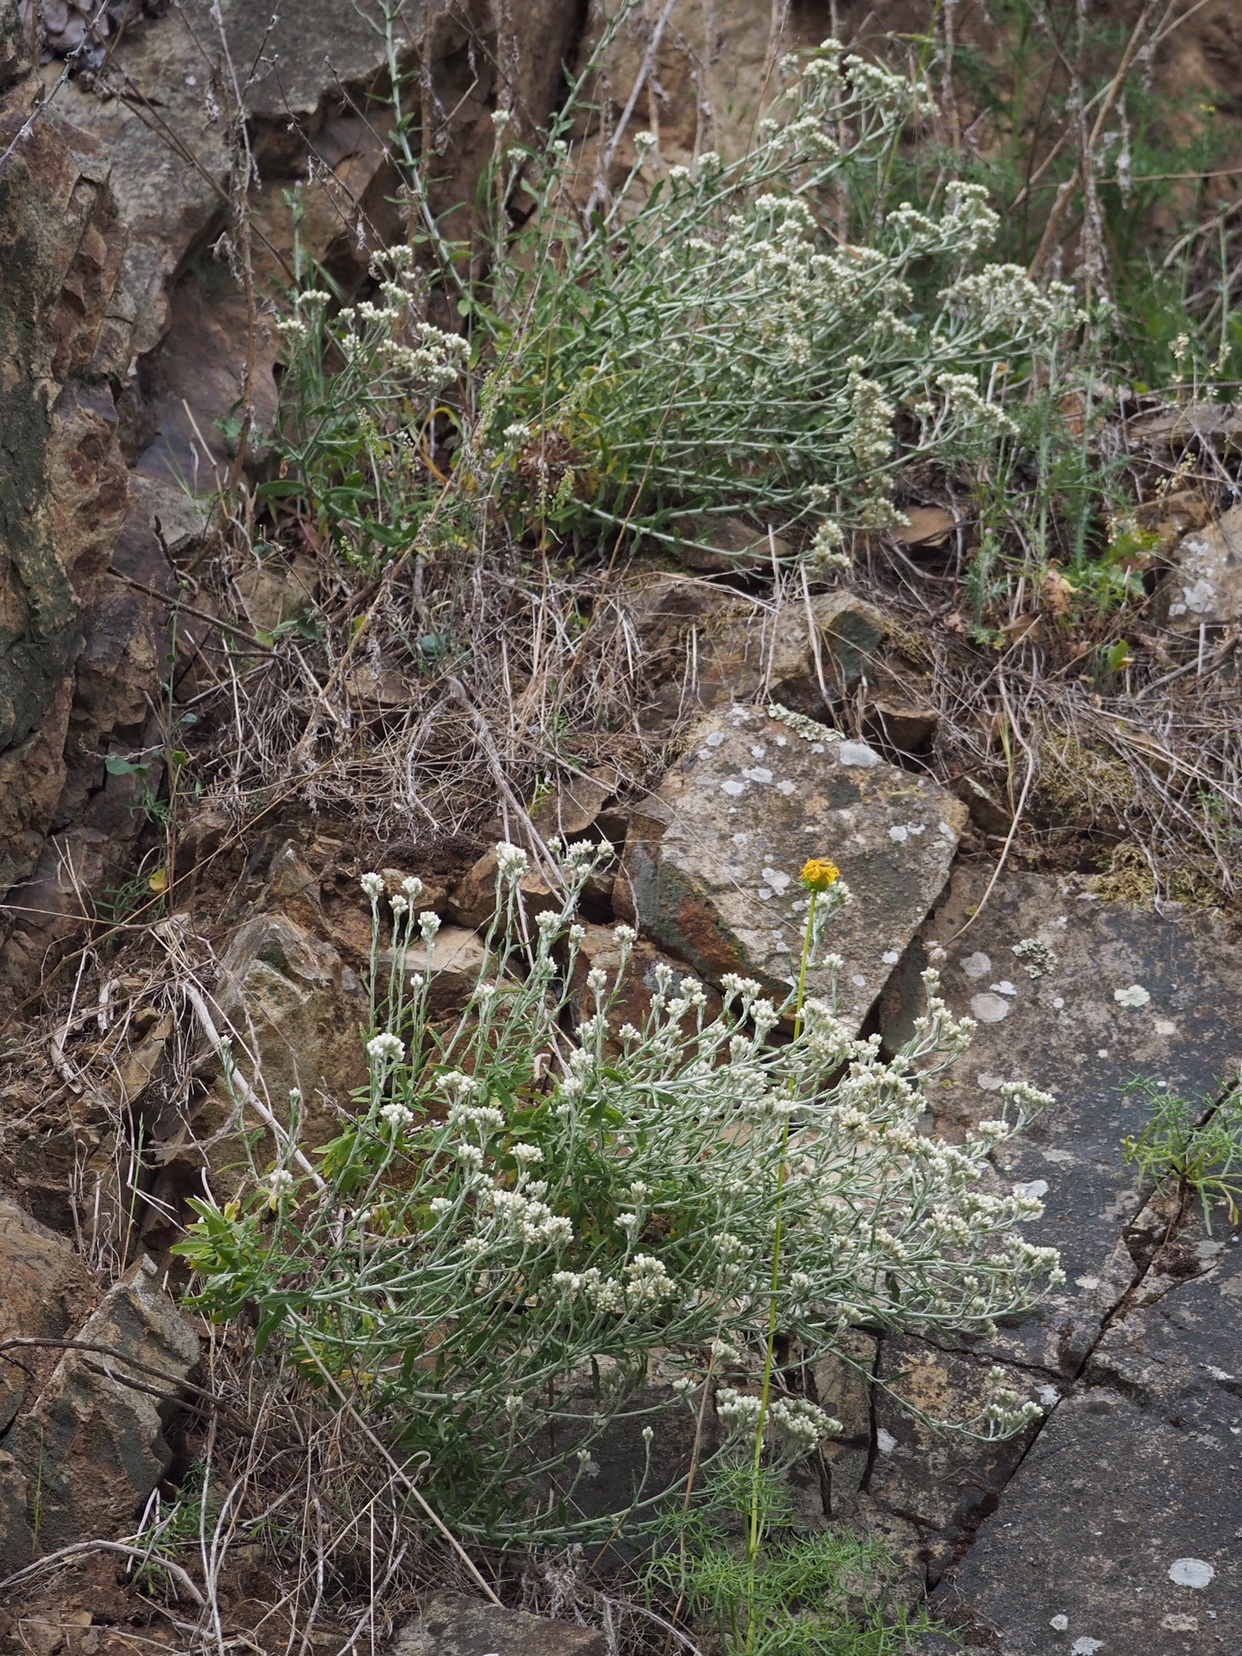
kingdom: Plantae
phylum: Tracheophyta
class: Magnoliopsida
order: Asterales
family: Asteraceae
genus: Pseudognaphalium
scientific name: Pseudognaphalium biolettii
